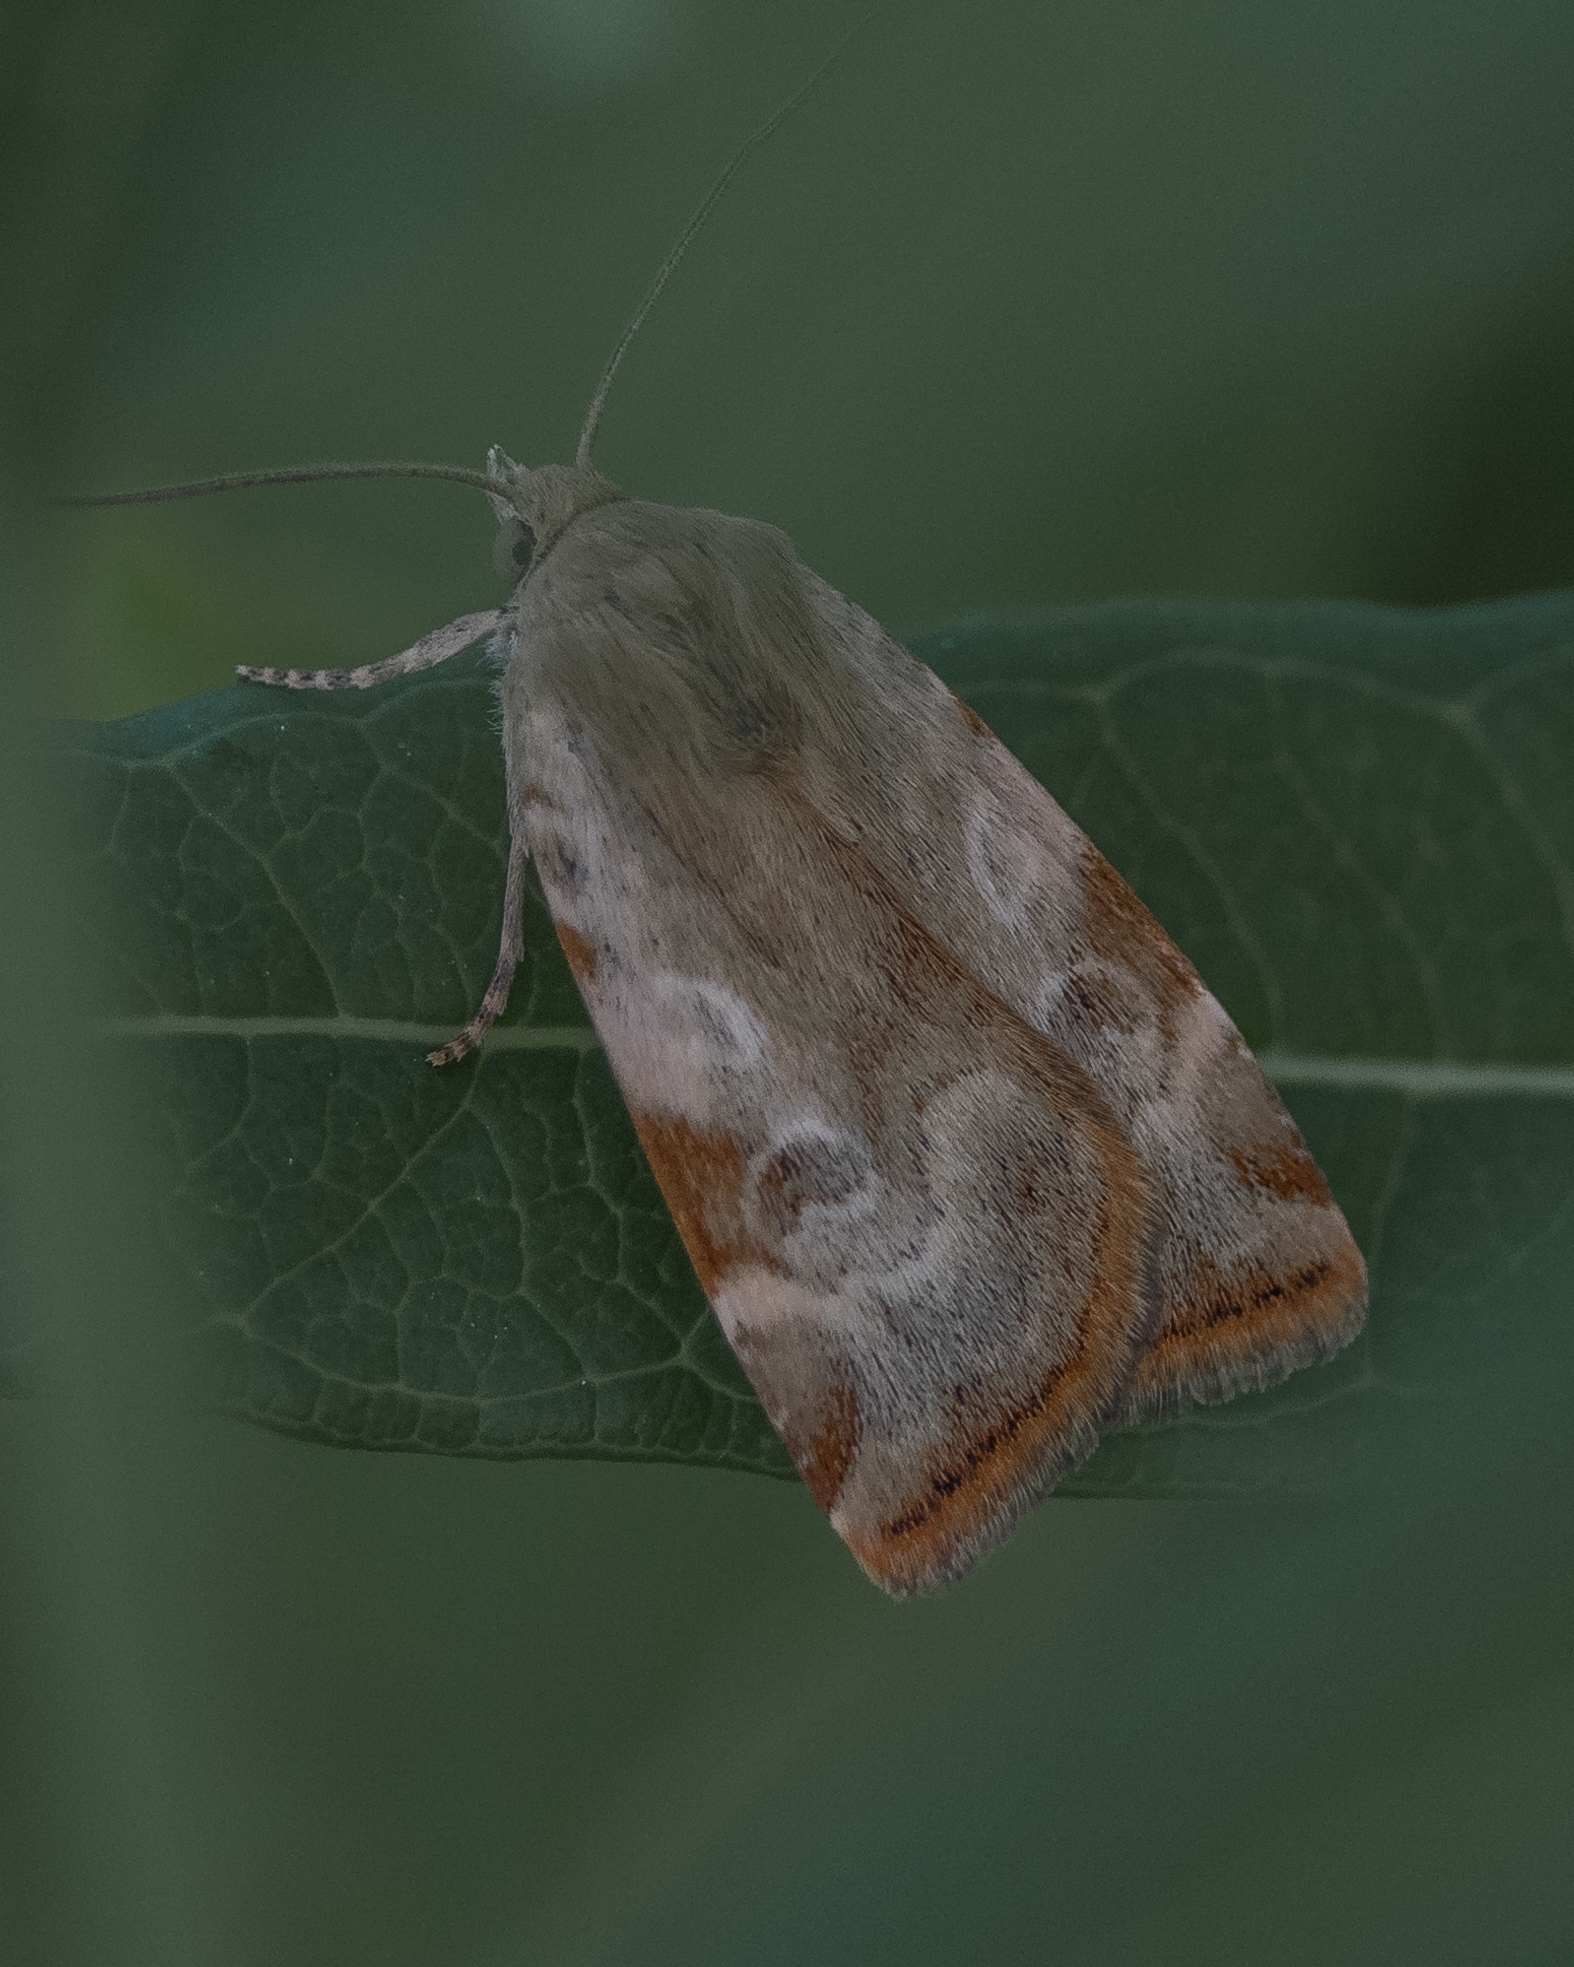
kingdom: Animalia
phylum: Arthropoda
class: Insecta
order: Lepidoptera
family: Noctuidae
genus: Cryptocala
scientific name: Cryptocala chardinyi
